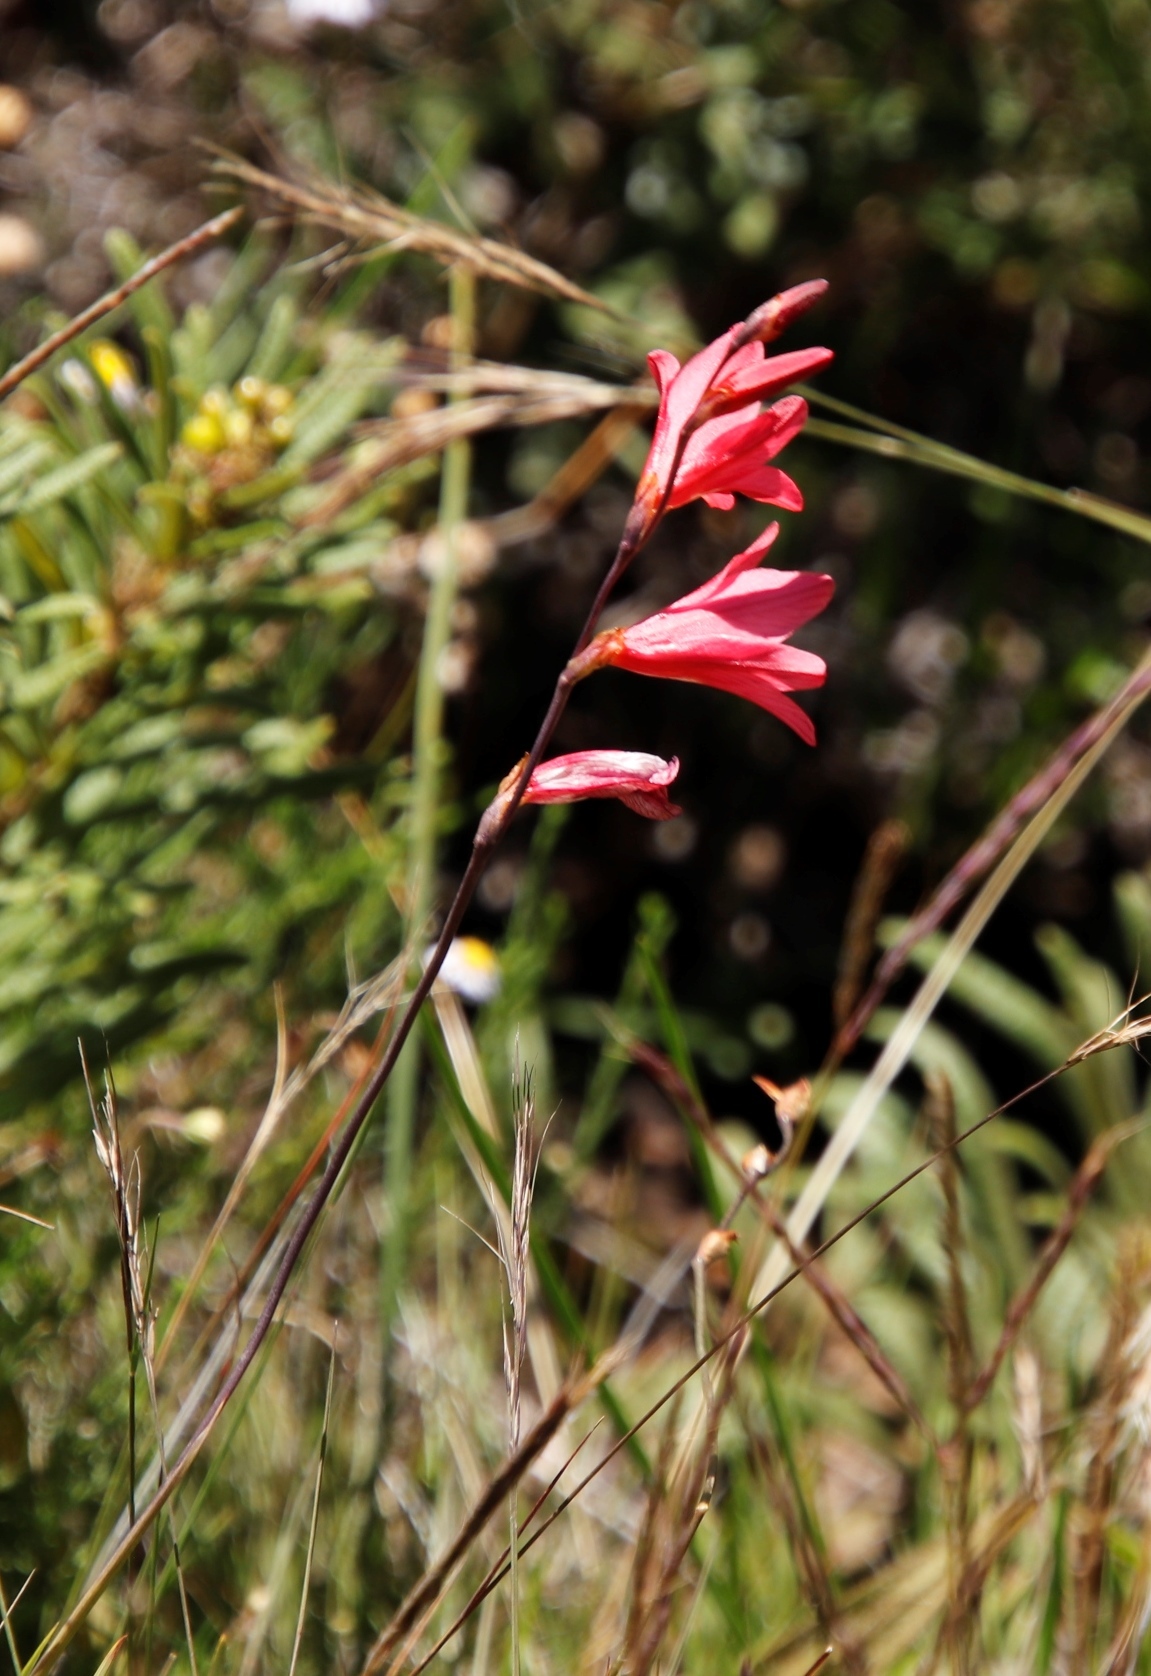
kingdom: Plantae
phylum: Tracheophyta
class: Liliopsida
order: Asparagales
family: Iridaceae
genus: Tritonia
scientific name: Tritonia drakensbergensis
